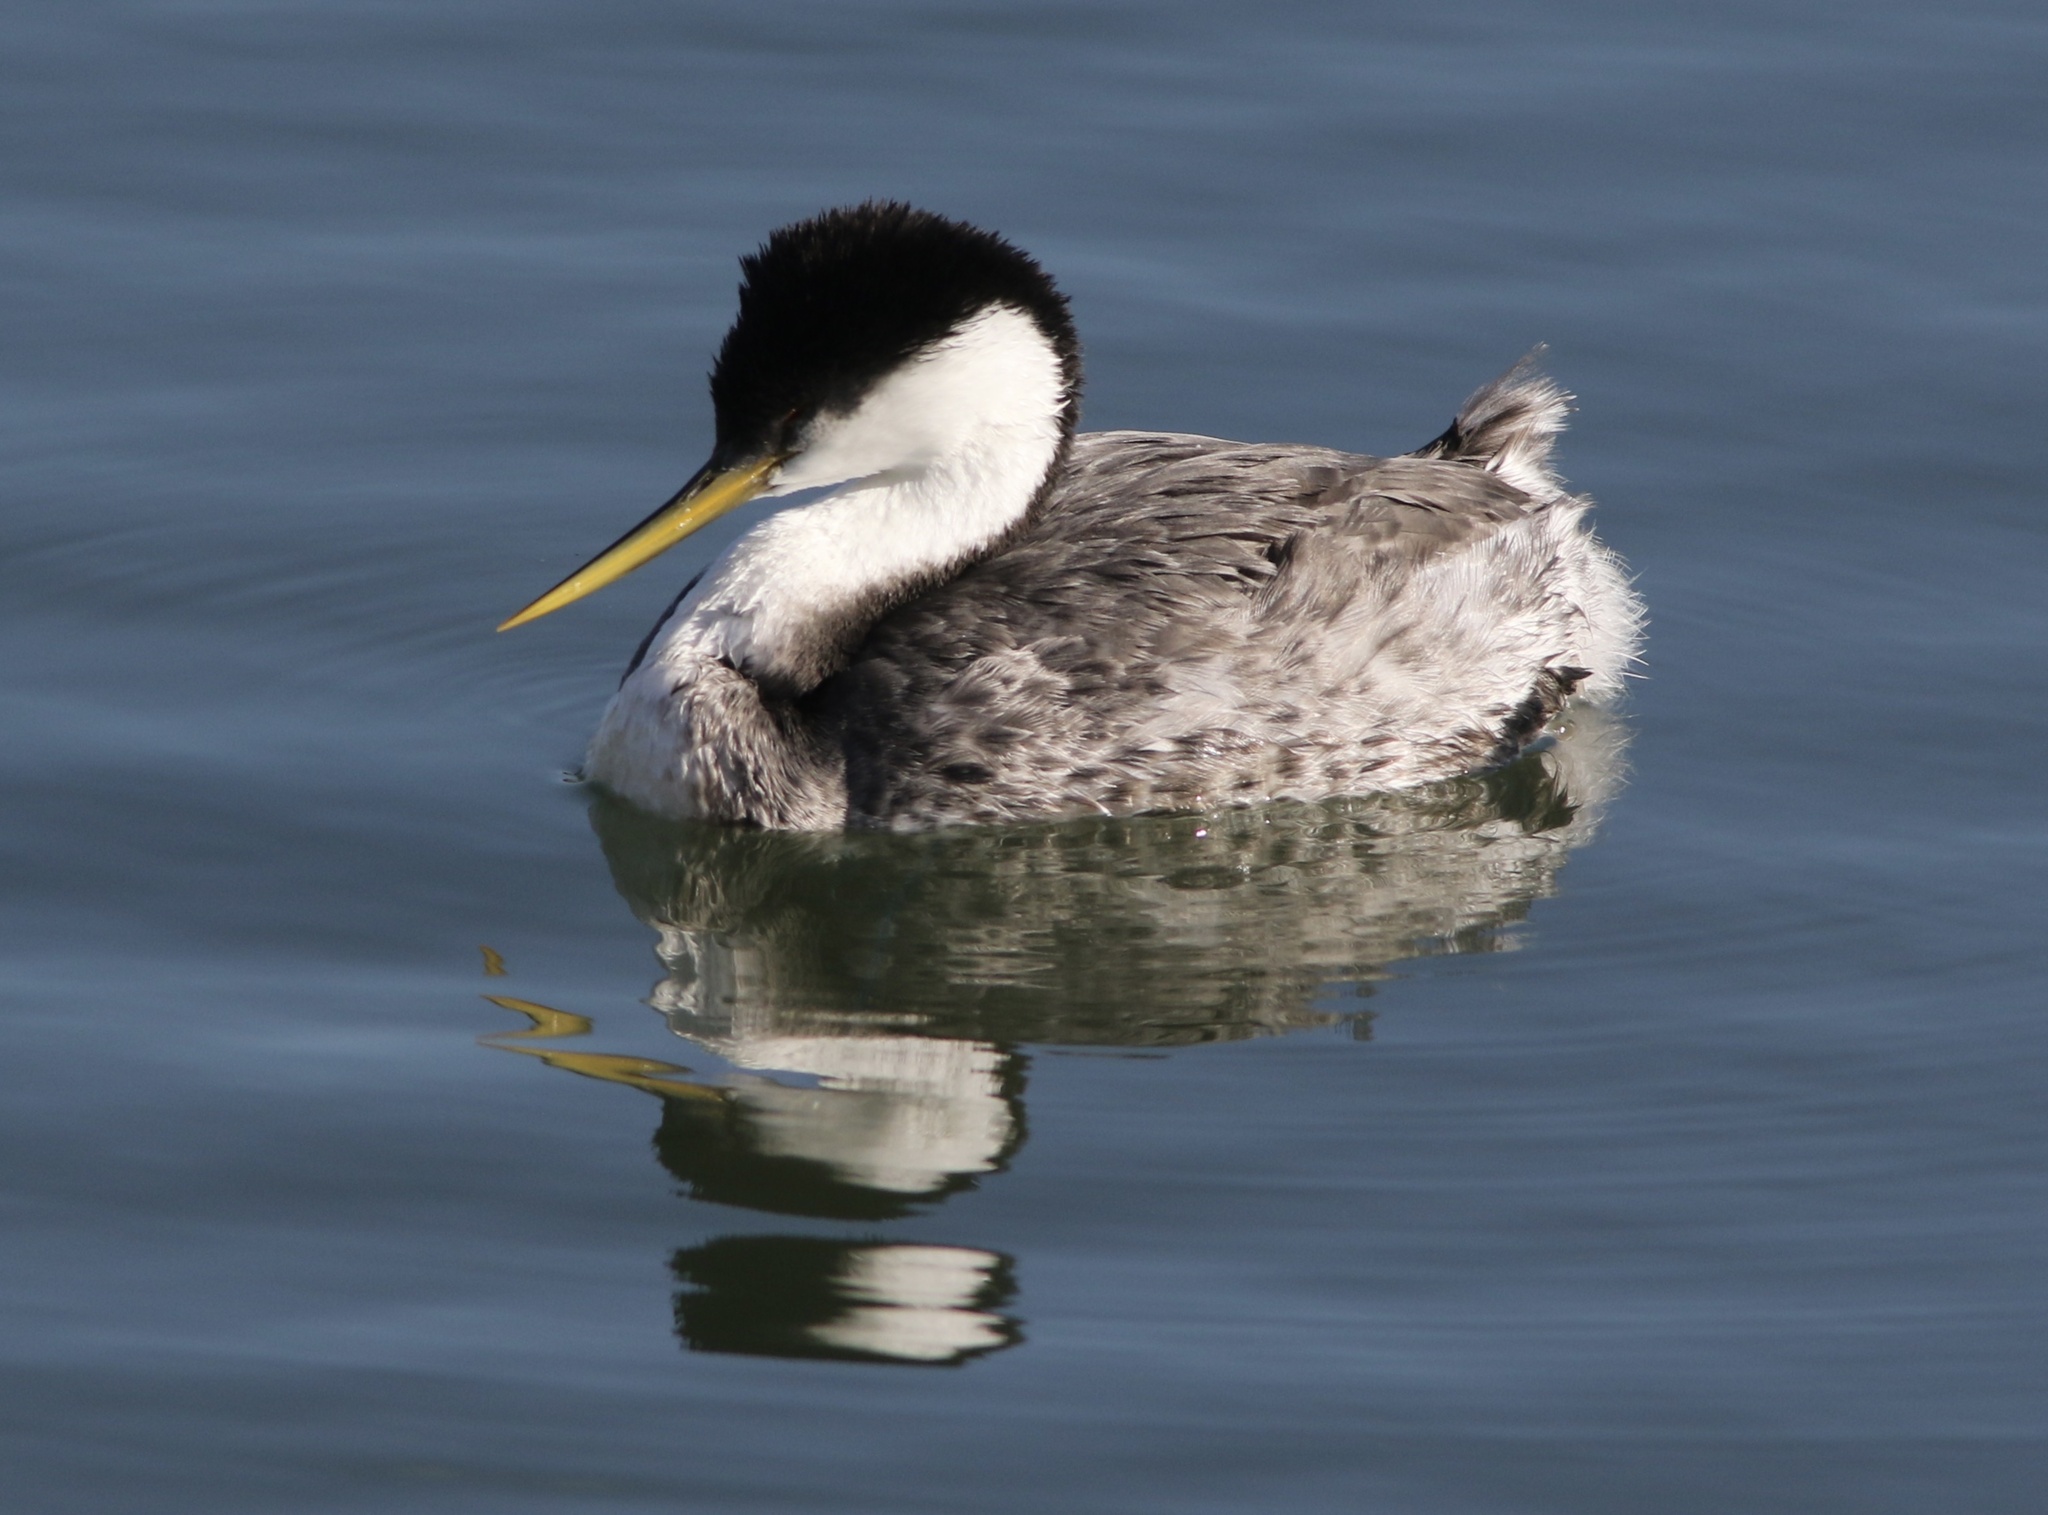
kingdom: Animalia
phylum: Chordata
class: Aves
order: Podicipediformes
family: Podicipedidae
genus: Aechmophorus
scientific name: Aechmophorus occidentalis
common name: Western grebe
